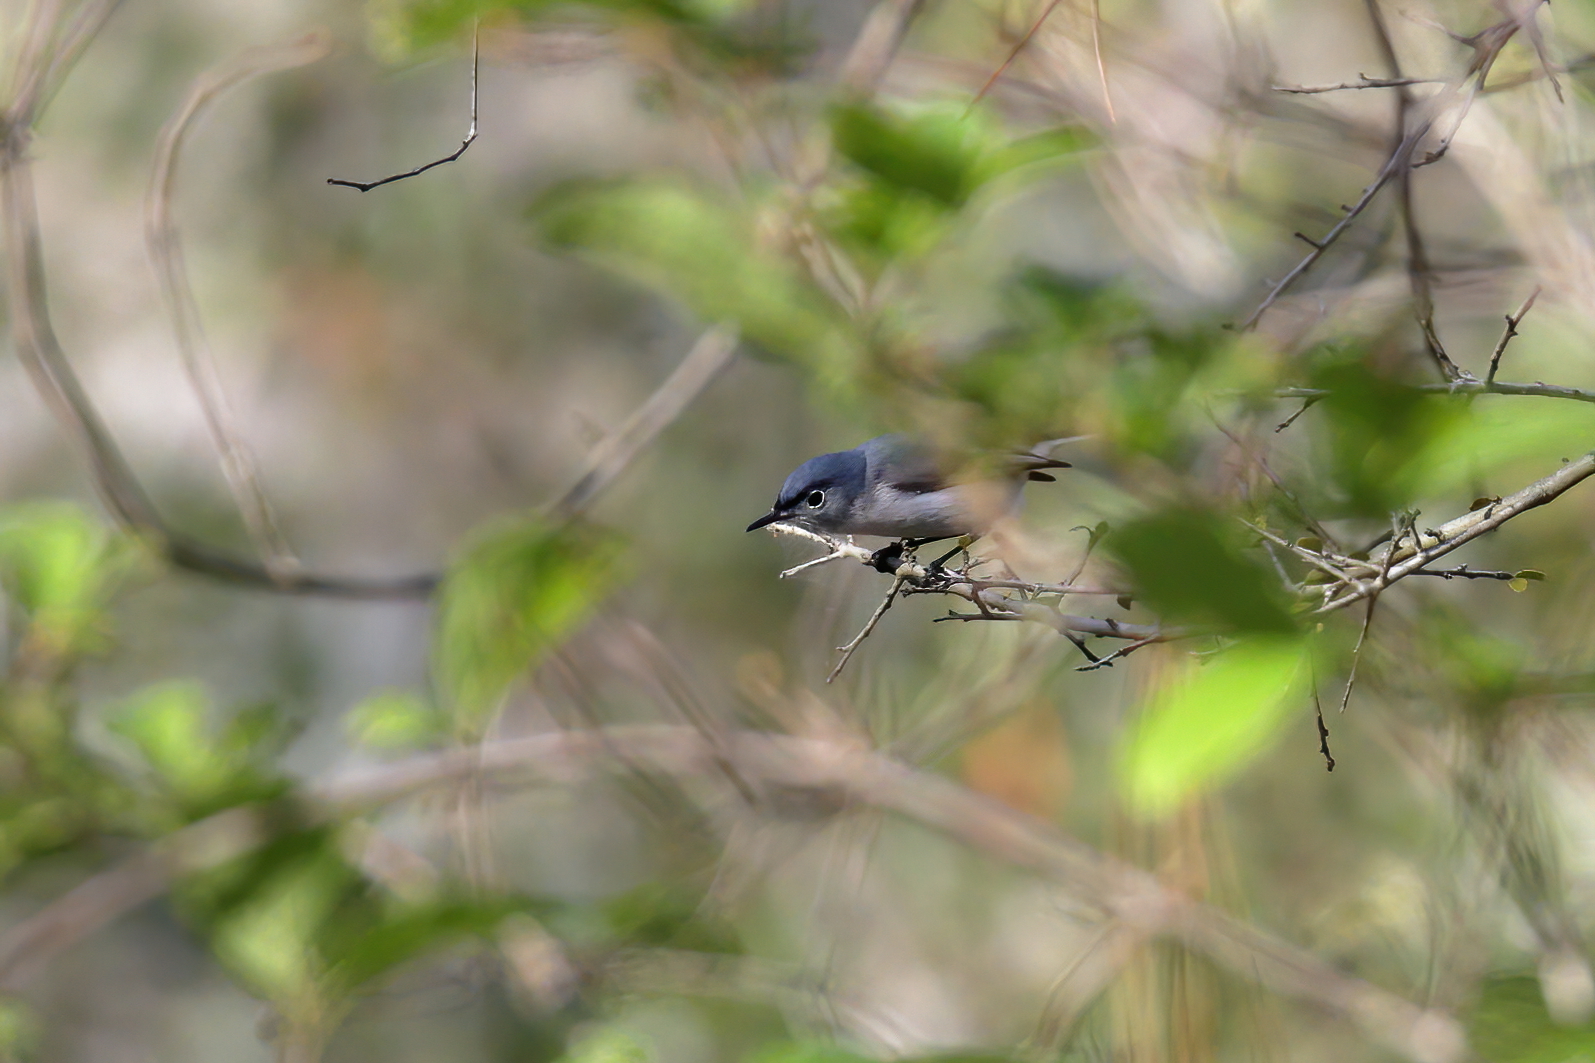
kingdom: Animalia
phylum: Chordata
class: Aves
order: Passeriformes
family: Polioptilidae
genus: Polioptila
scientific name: Polioptila caerulea
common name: Blue-gray gnatcatcher
